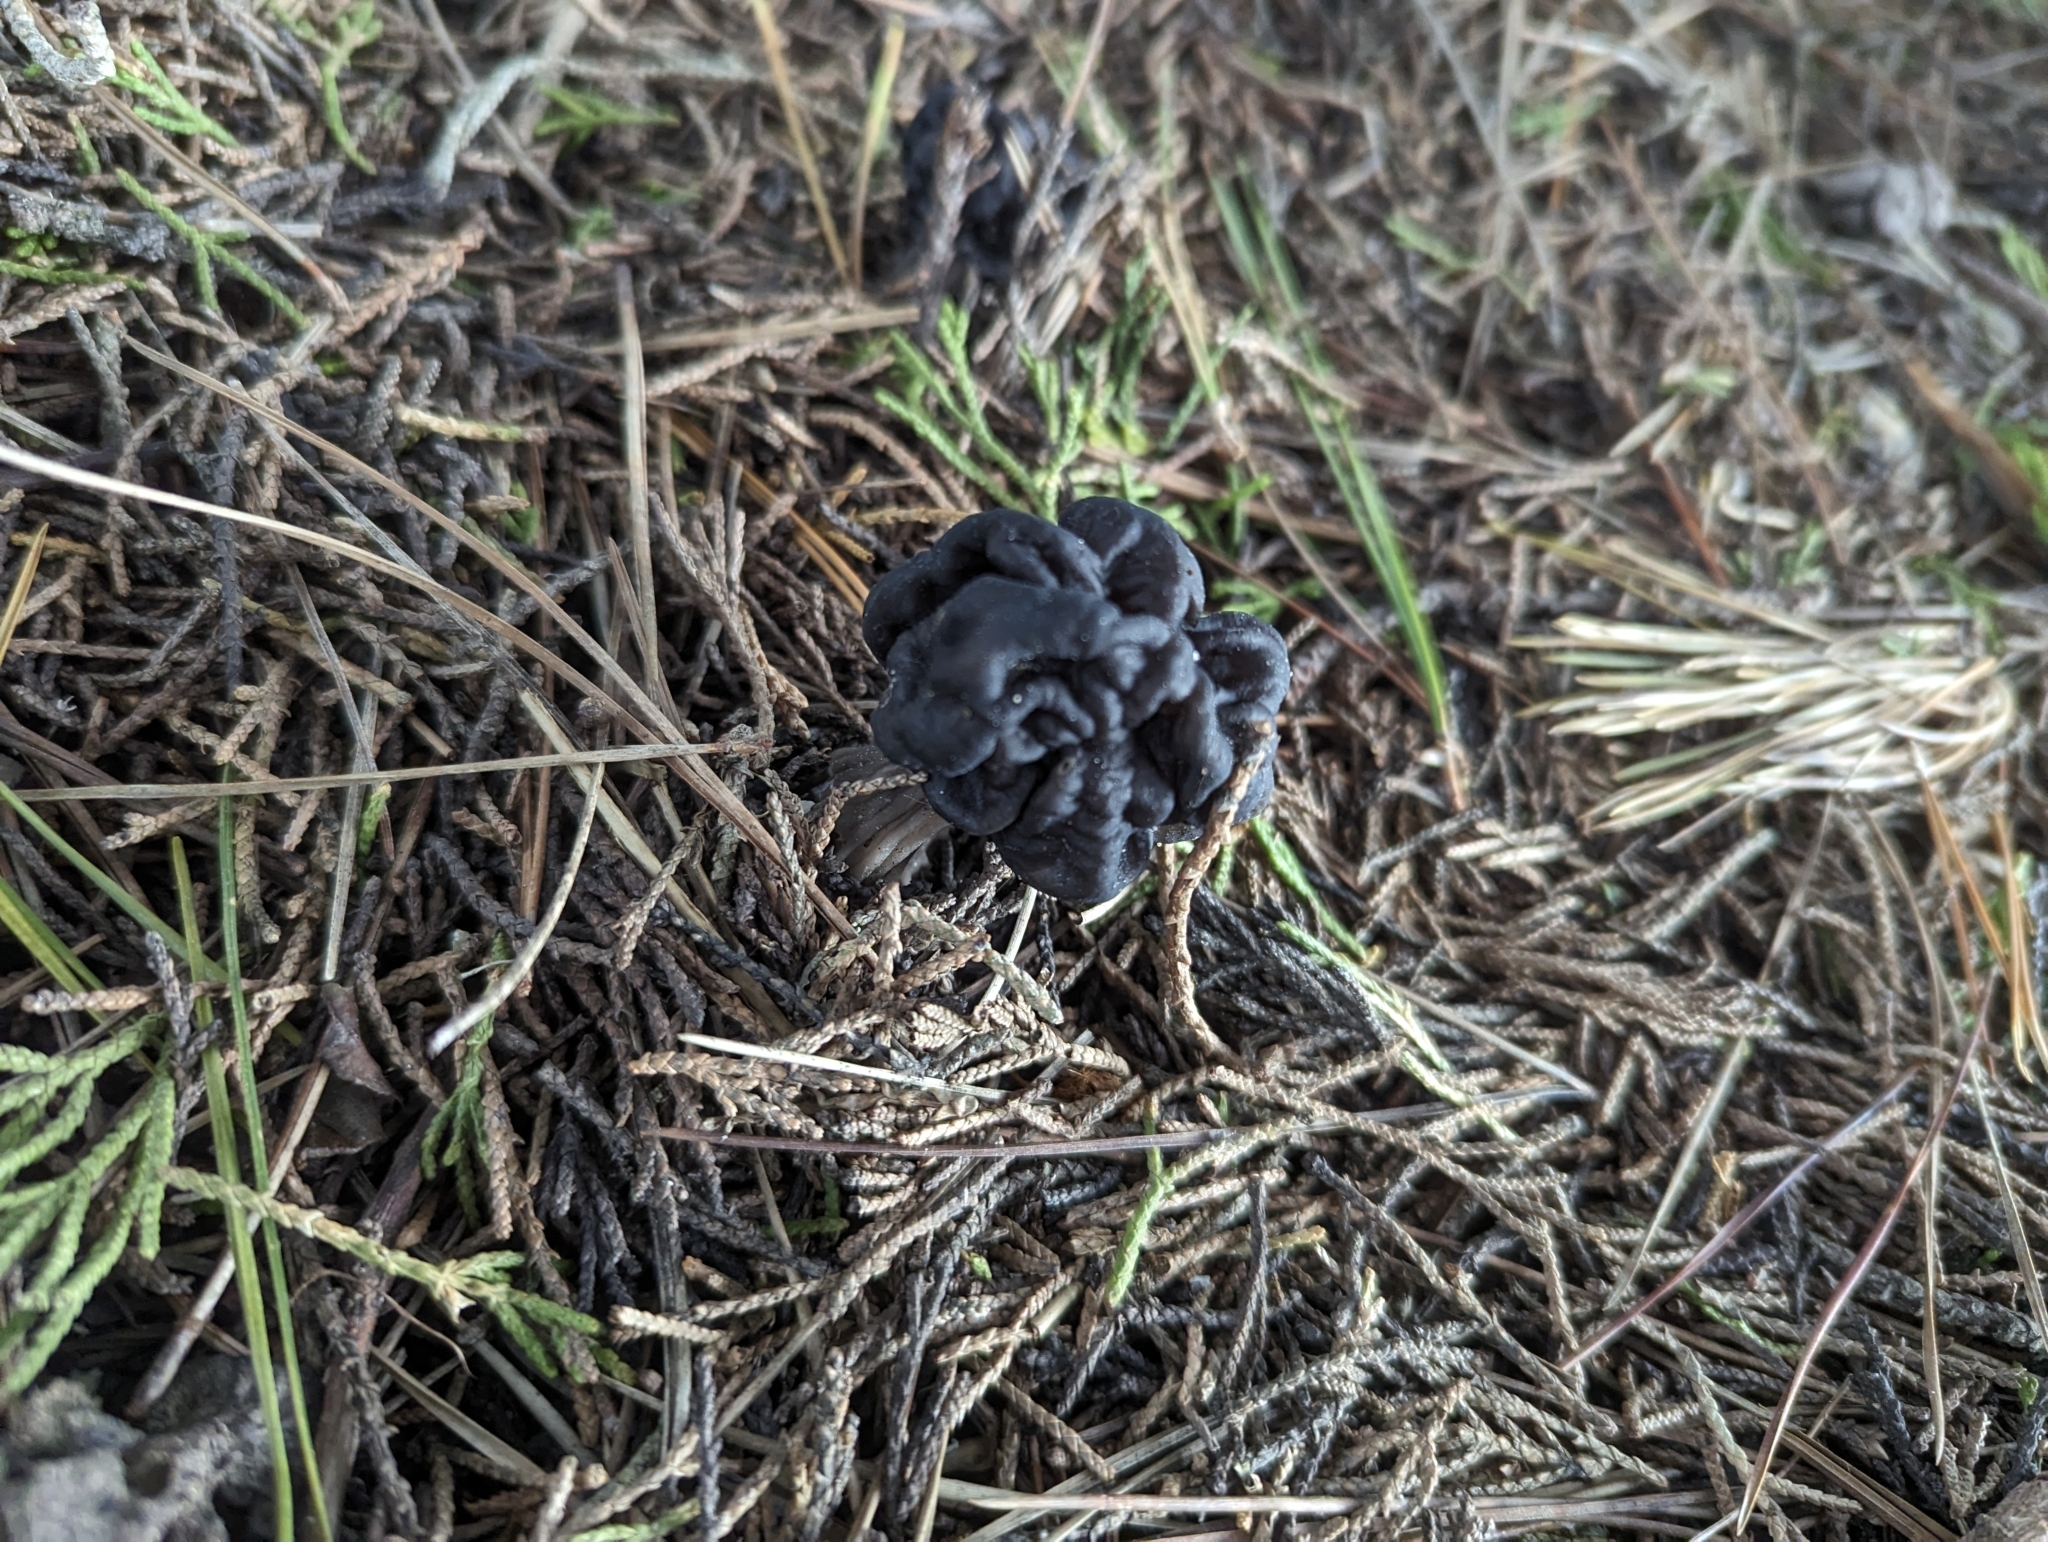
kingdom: Fungi
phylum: Ascomycota
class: Pezizomycetes
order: Pezizales
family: Helvellaceae
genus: Helvella
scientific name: Helvella vespertina
